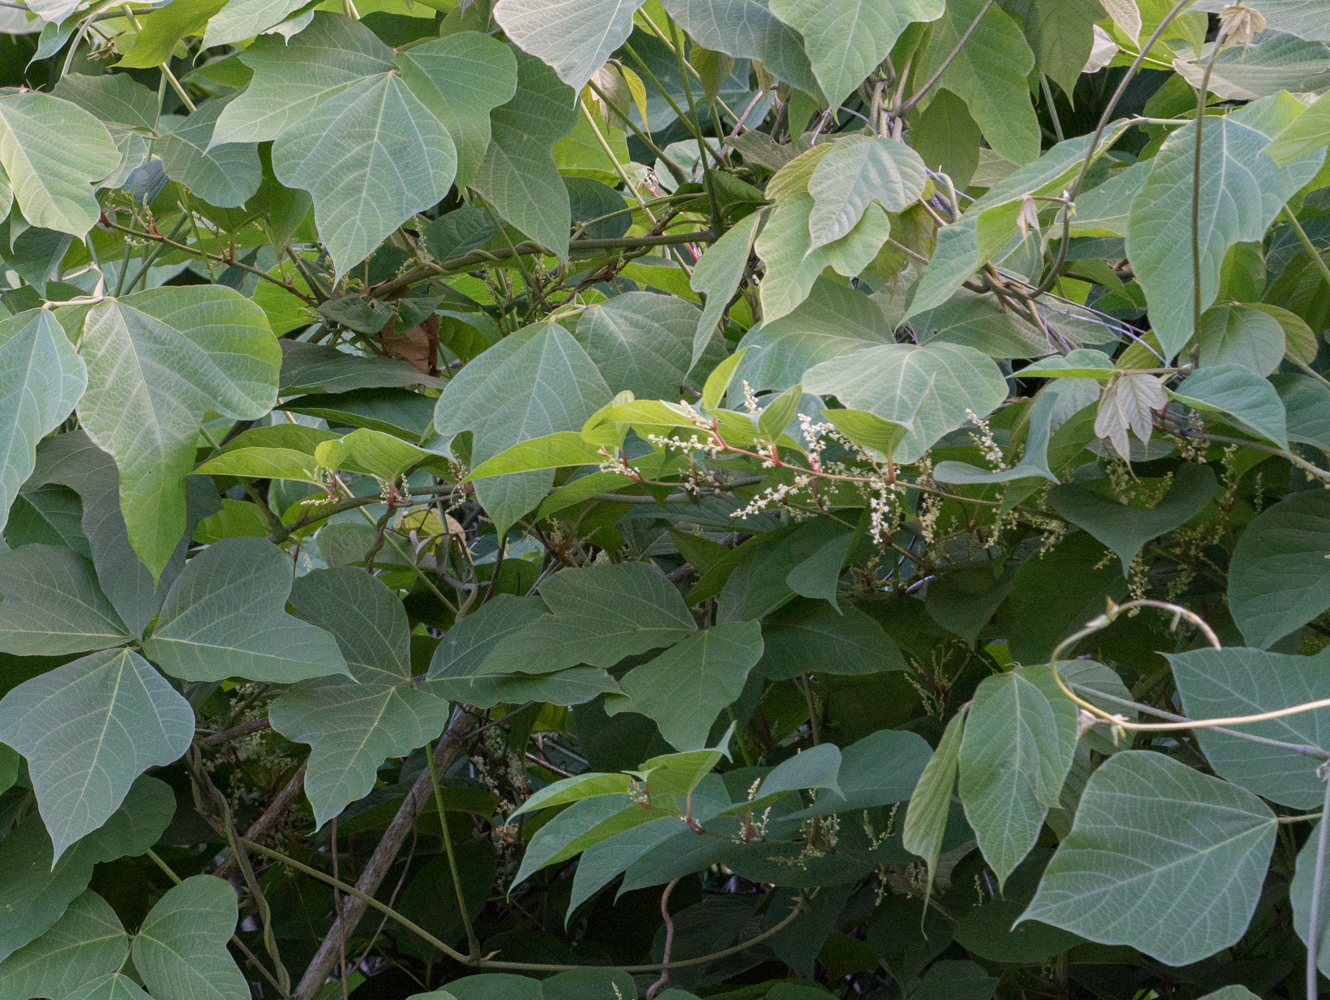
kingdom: Plantae
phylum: Tracheophyta
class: Magnoliopsida
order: Fabales
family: Fabaceae
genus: Pueraria
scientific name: Pueraria montana
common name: Kudzu
